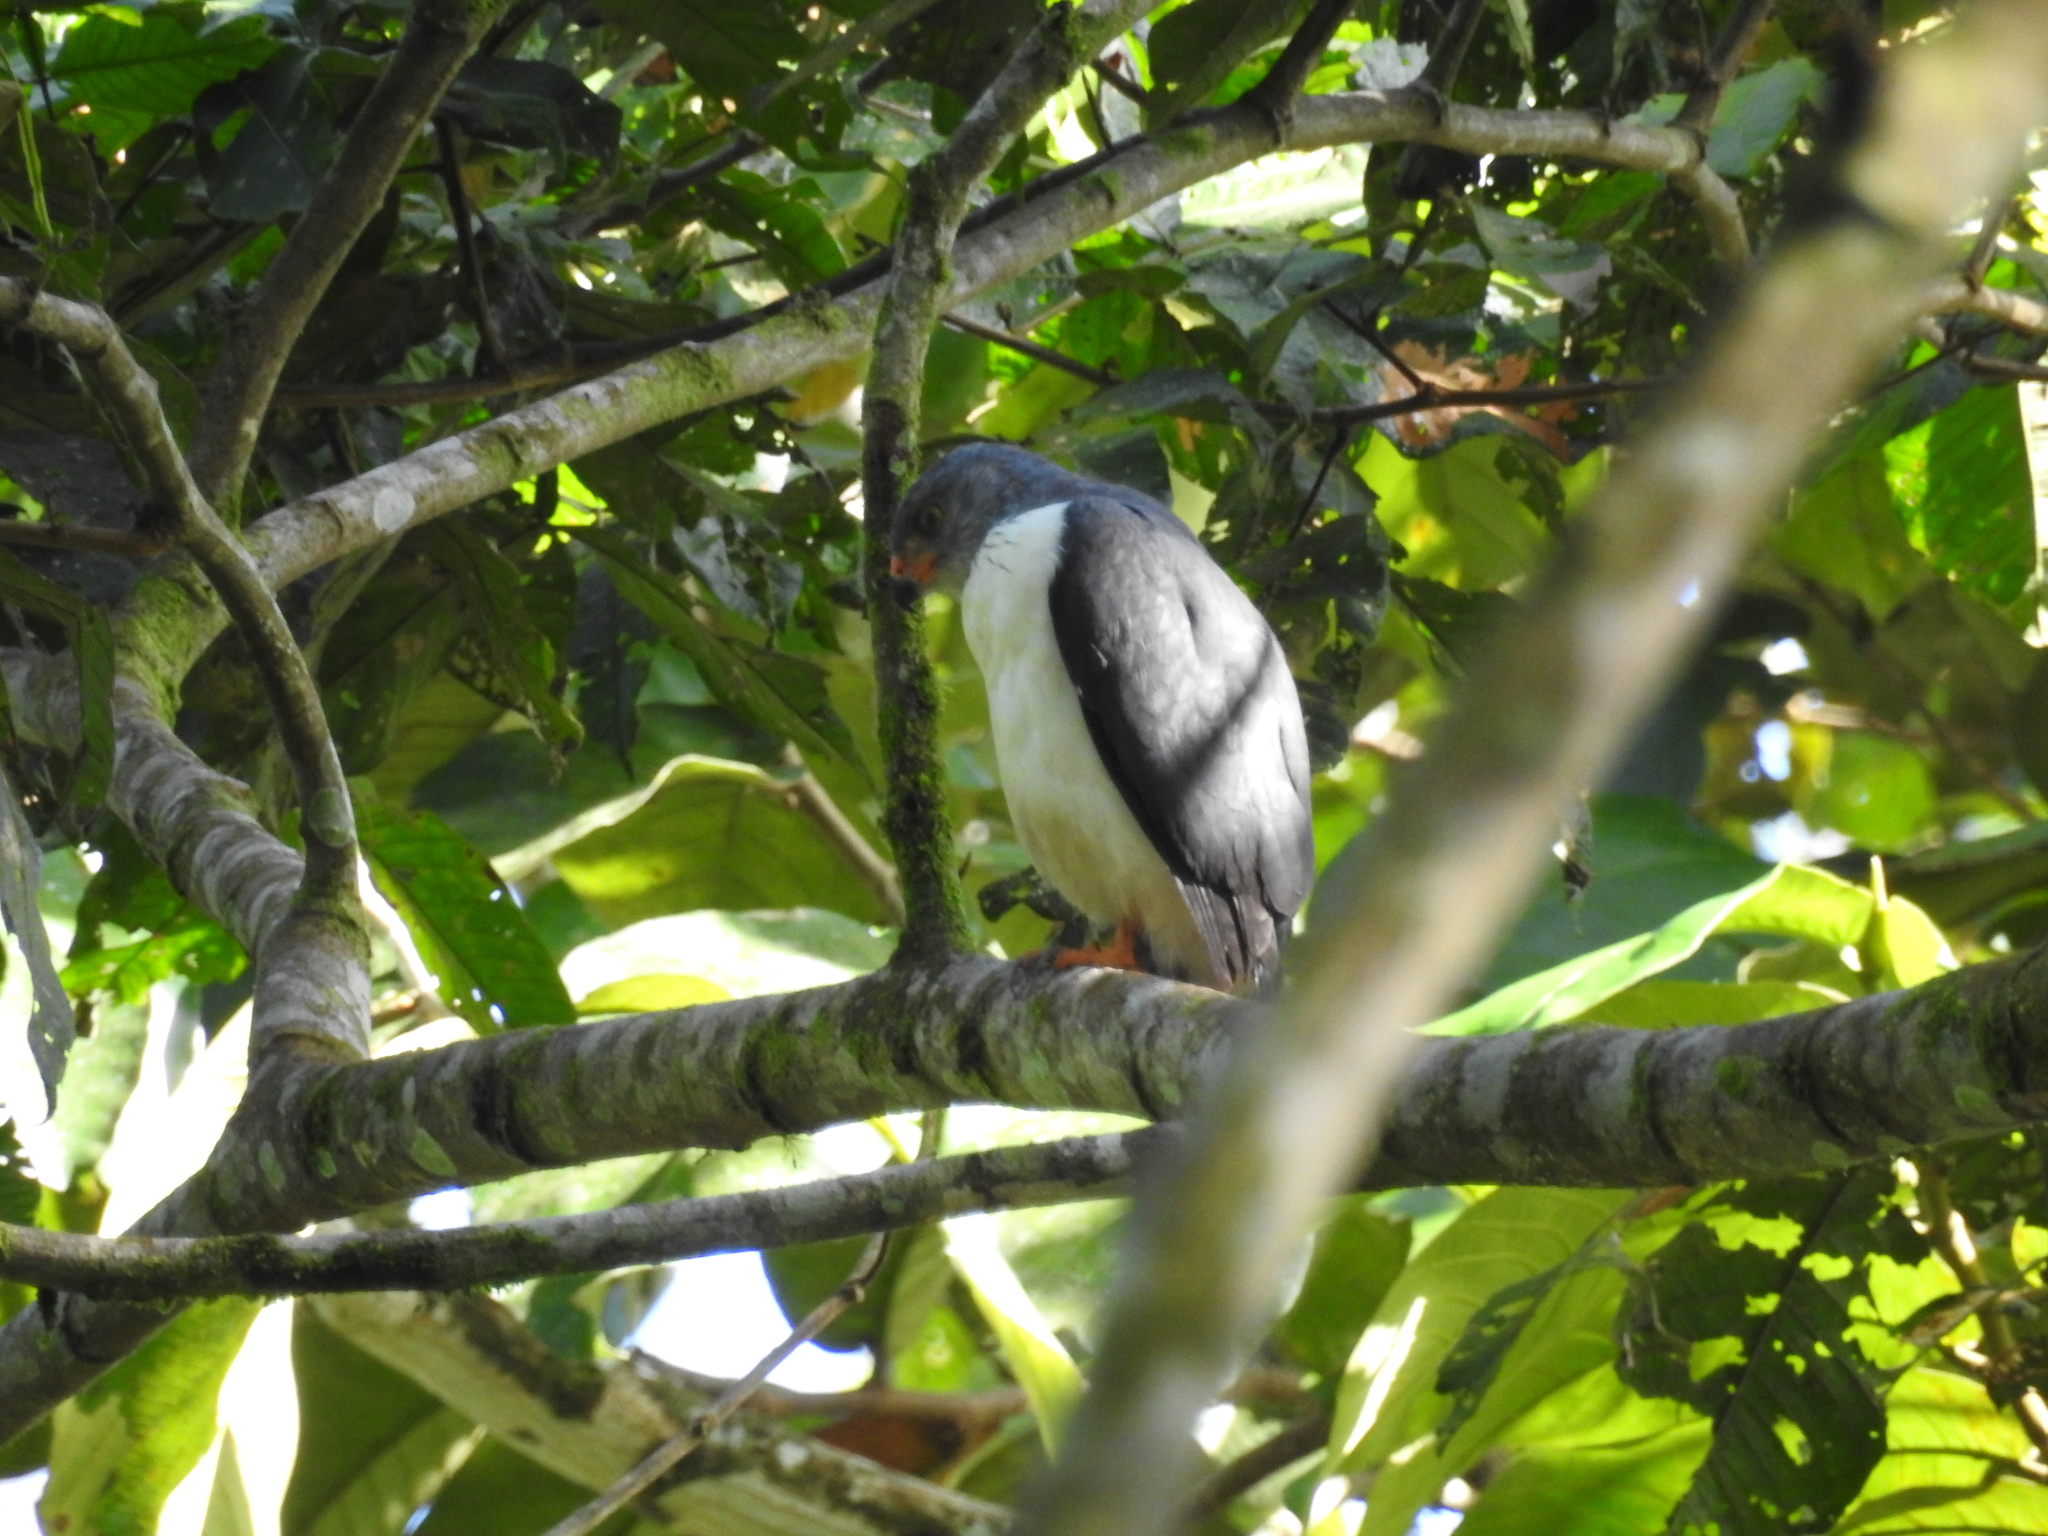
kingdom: Animalia
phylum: Chordata
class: Aves
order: Accipitriformes
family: Accipitridae
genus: Leucopternis
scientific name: Leucopternis semiplumbeus
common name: Semiplumbeous hawk
